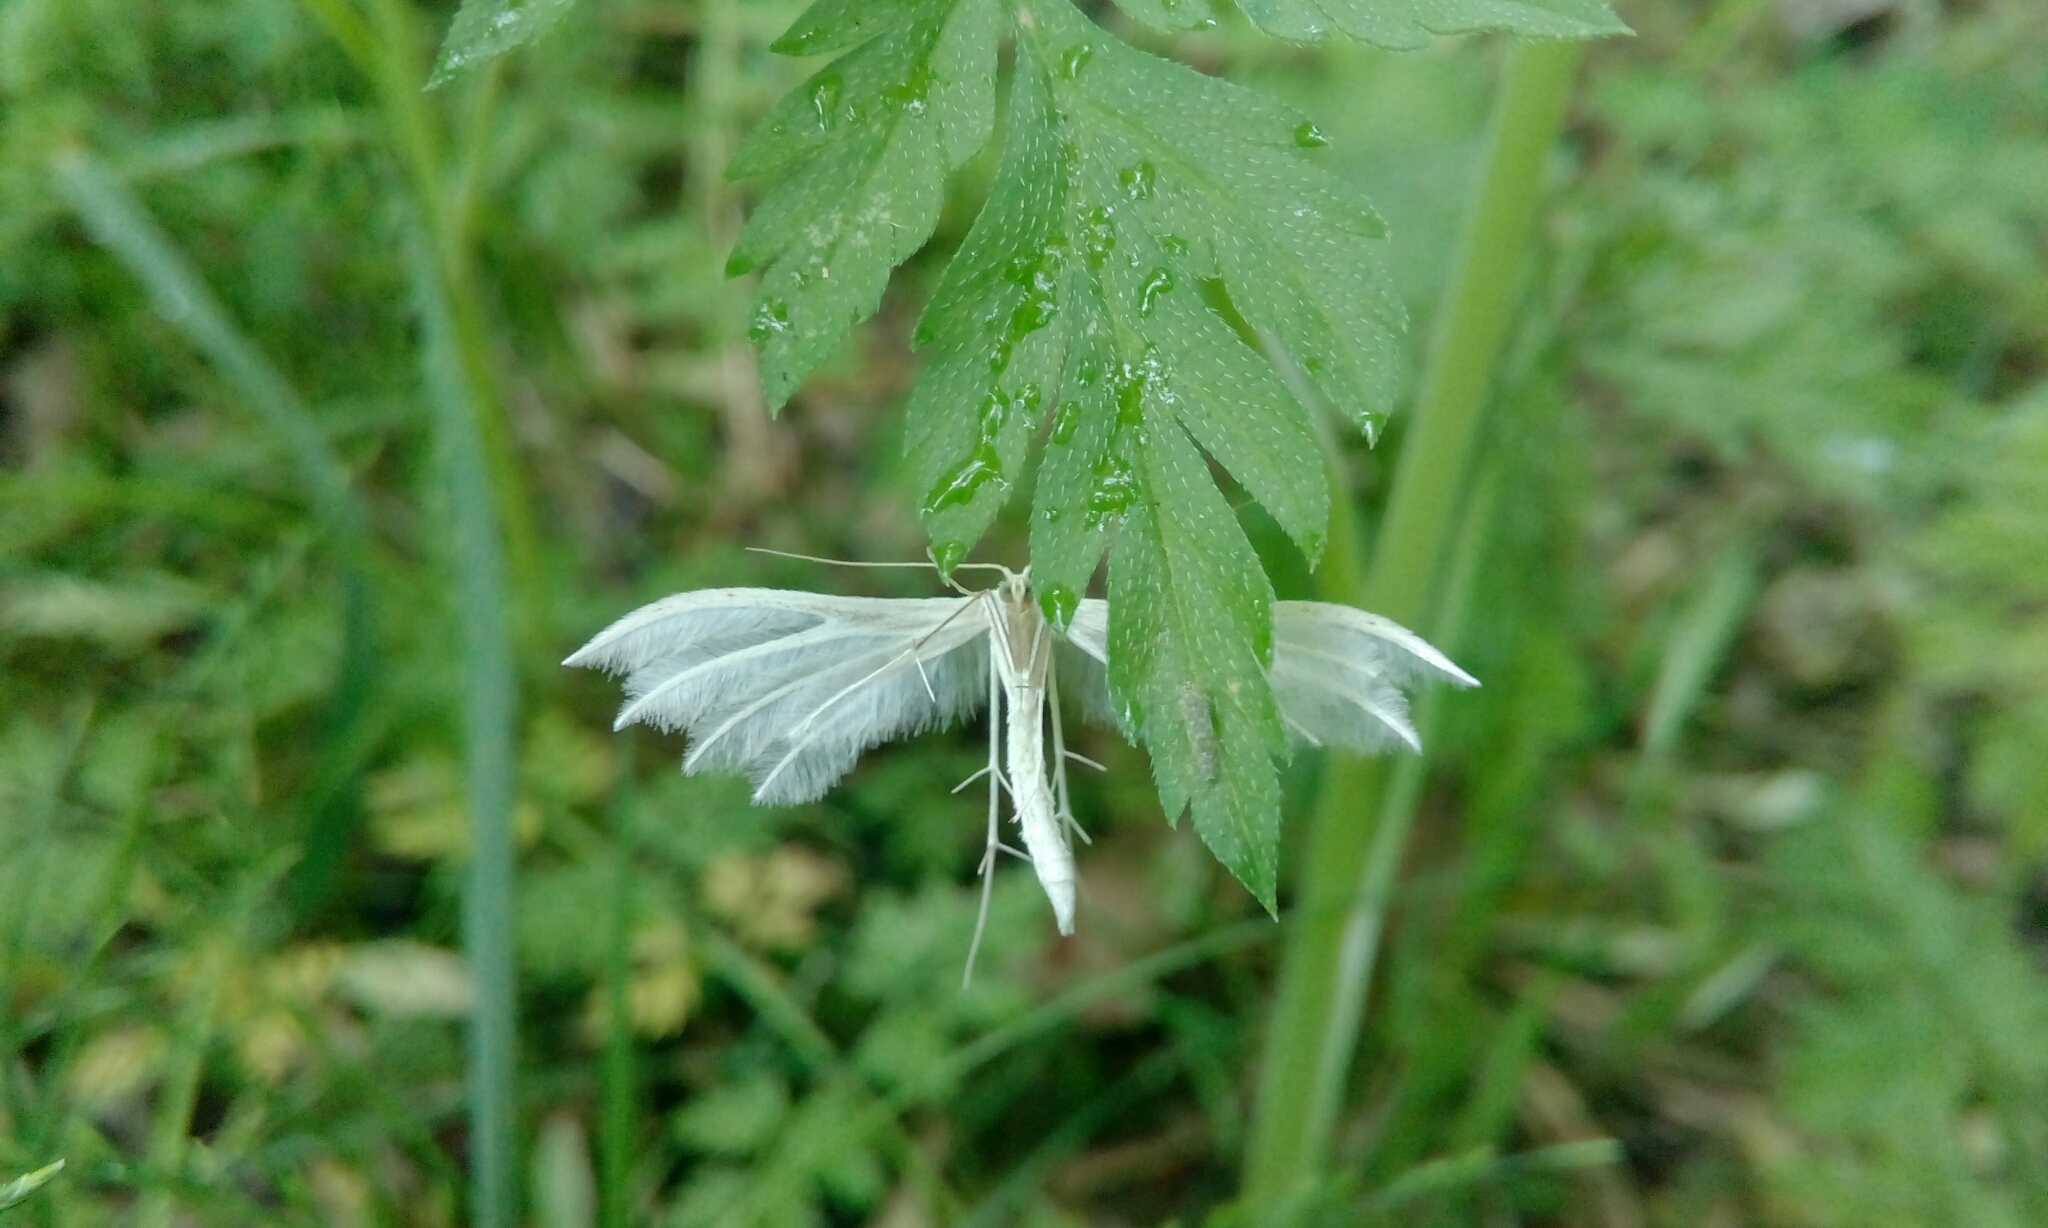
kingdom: Animalia
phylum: Arthropoda
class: Insecta
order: Lepidoptera
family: Pterophoridae
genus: Pterophorus
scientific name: Pterophorus pentadactyla
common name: White plume moth
